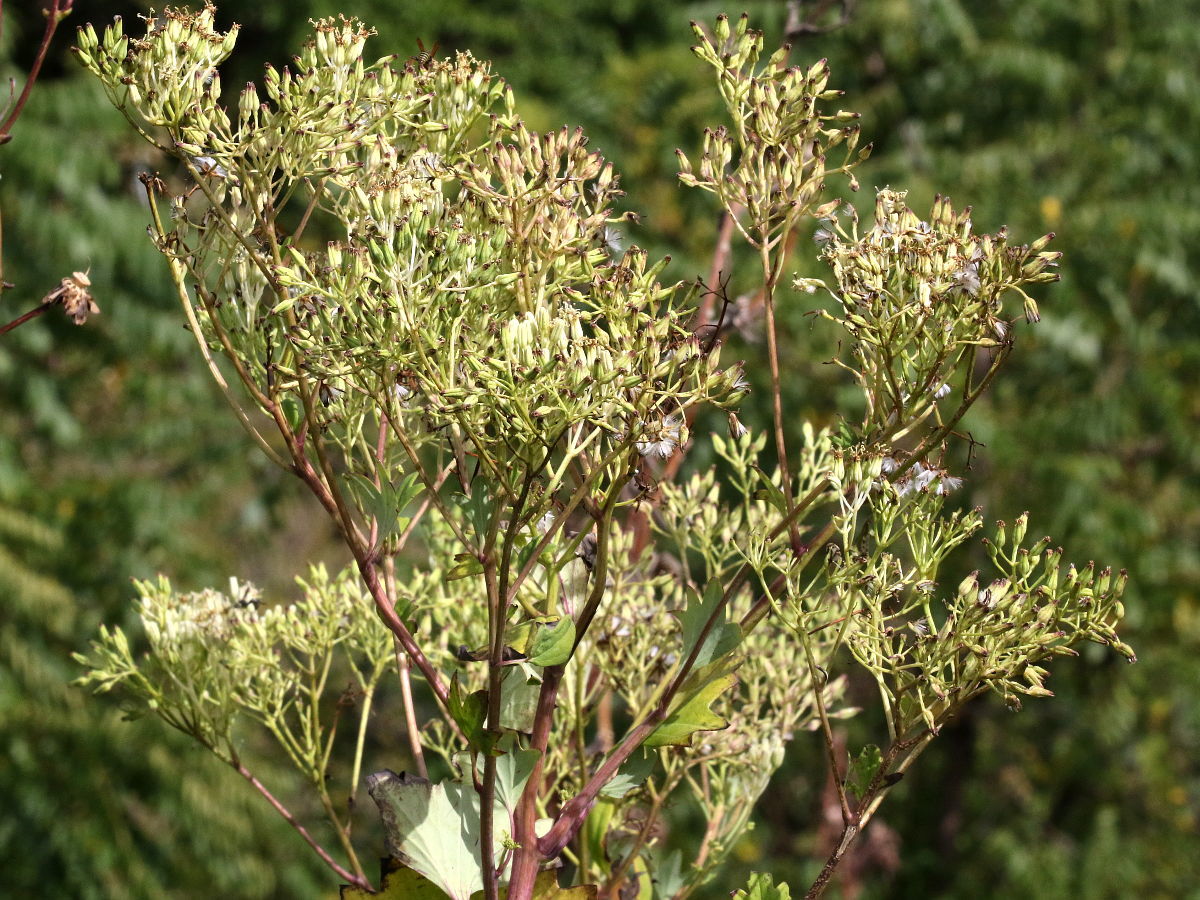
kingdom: Plantae
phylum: Tracheophyta
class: Magnoliopsida
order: Asterales
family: Asteraceae
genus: Arnoglossum
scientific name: Arnoglossum atriplicifolium
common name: Pale indian-plantain
